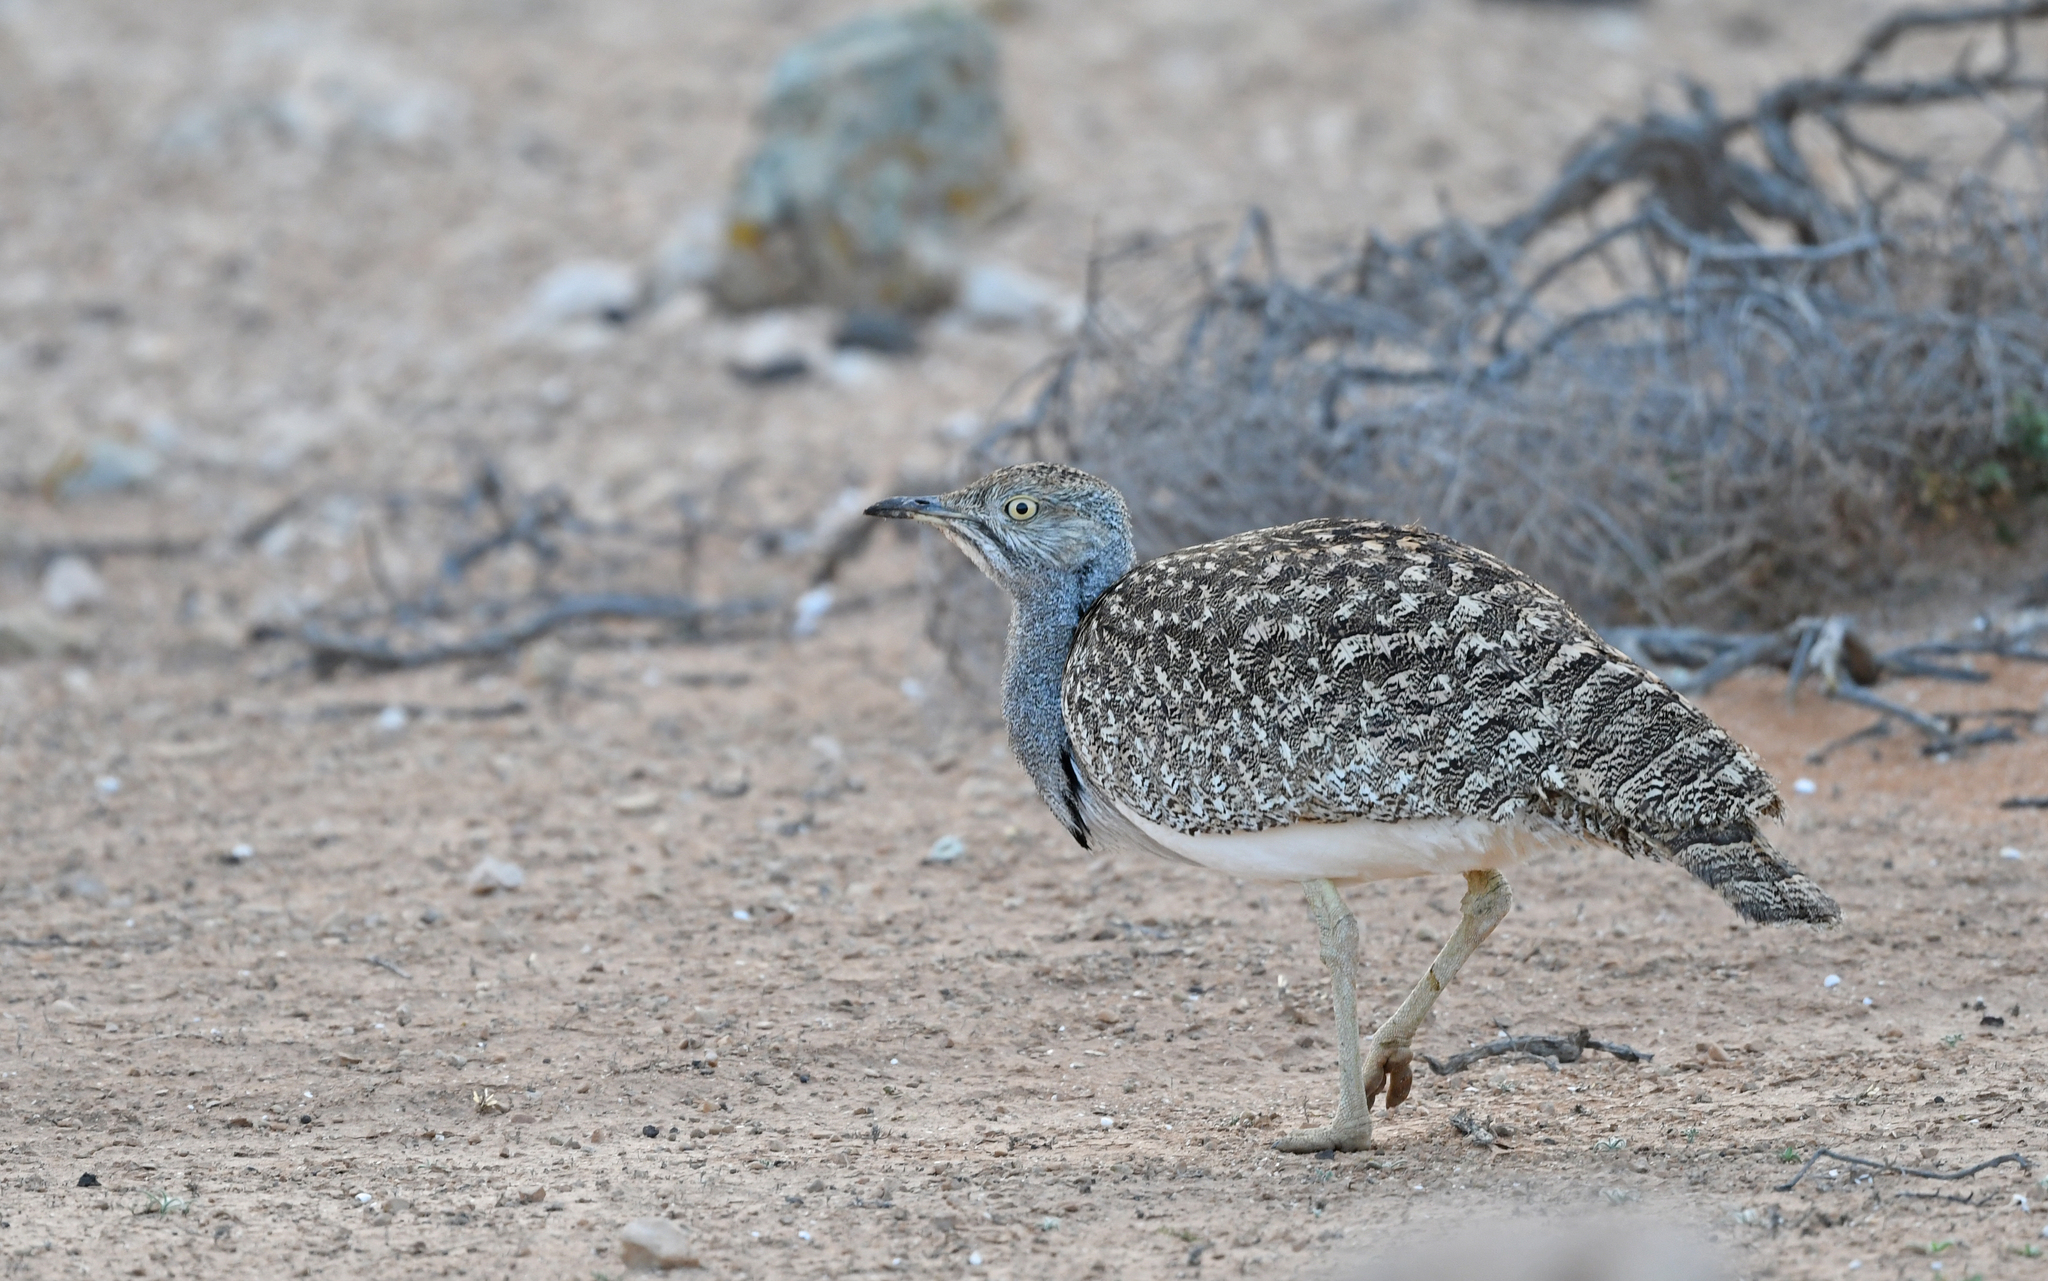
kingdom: Animalia
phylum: Chordata
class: Aves
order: Otidiformes
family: Otididae
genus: Chlamydotis
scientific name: Chlamydotis undulata
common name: Houbara bustard
